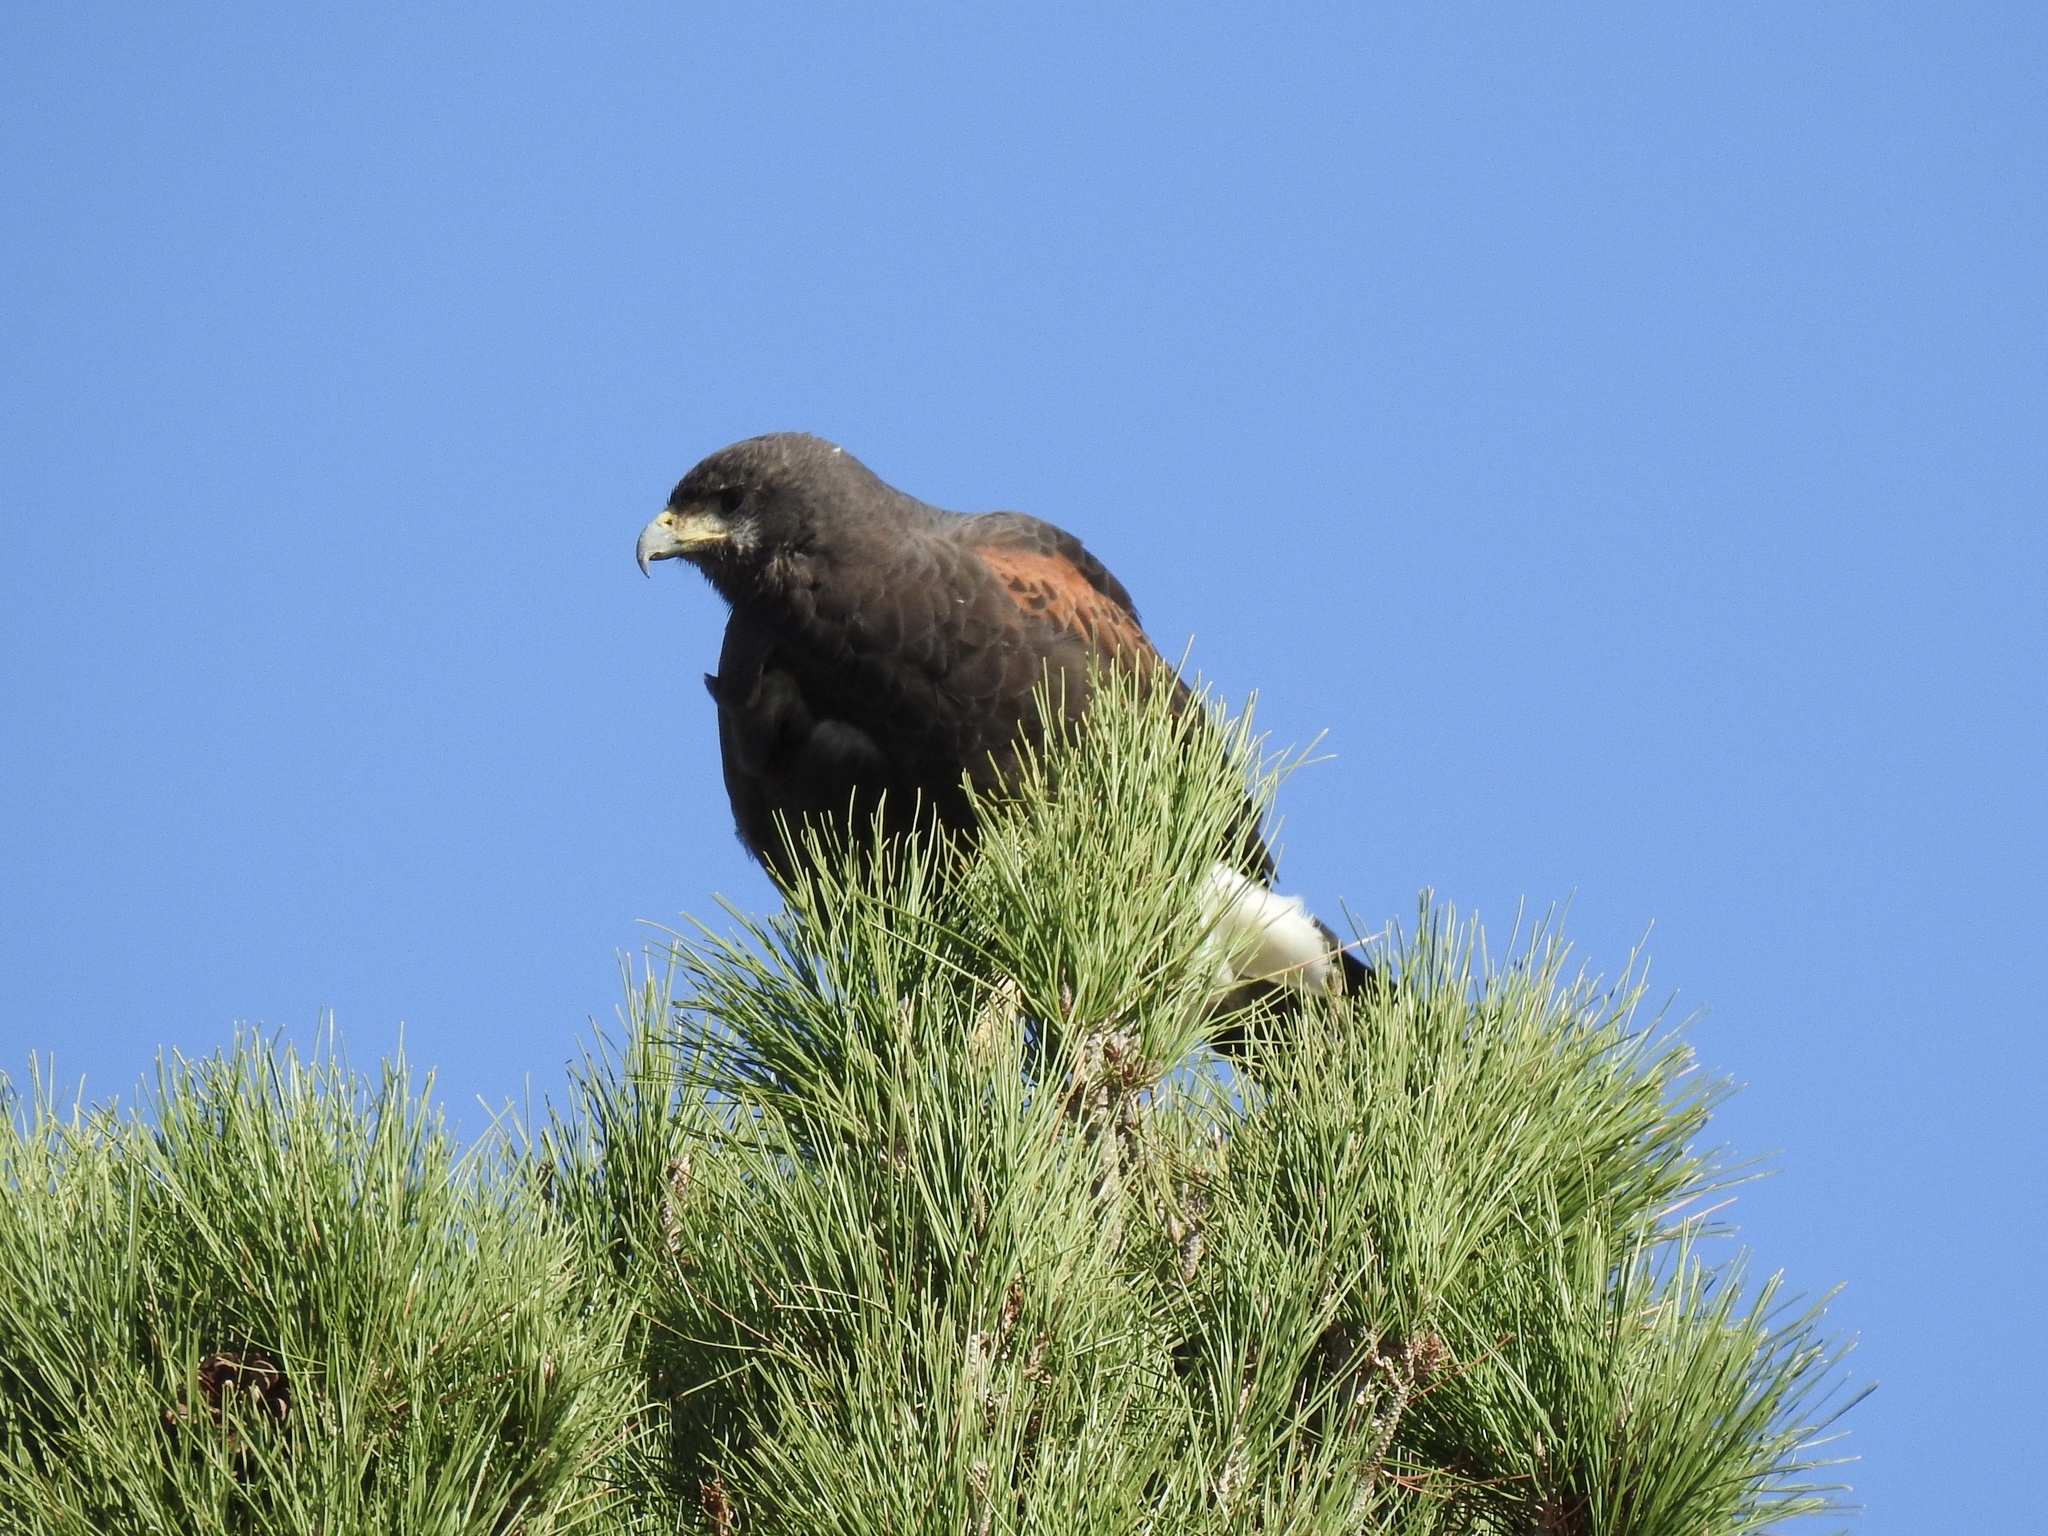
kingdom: Animalia
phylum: Chordata
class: Aves
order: Accipitriformes
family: Accipitridae
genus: Parabuteo
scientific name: Parabuteo unicinctus
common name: Harris's hawk
